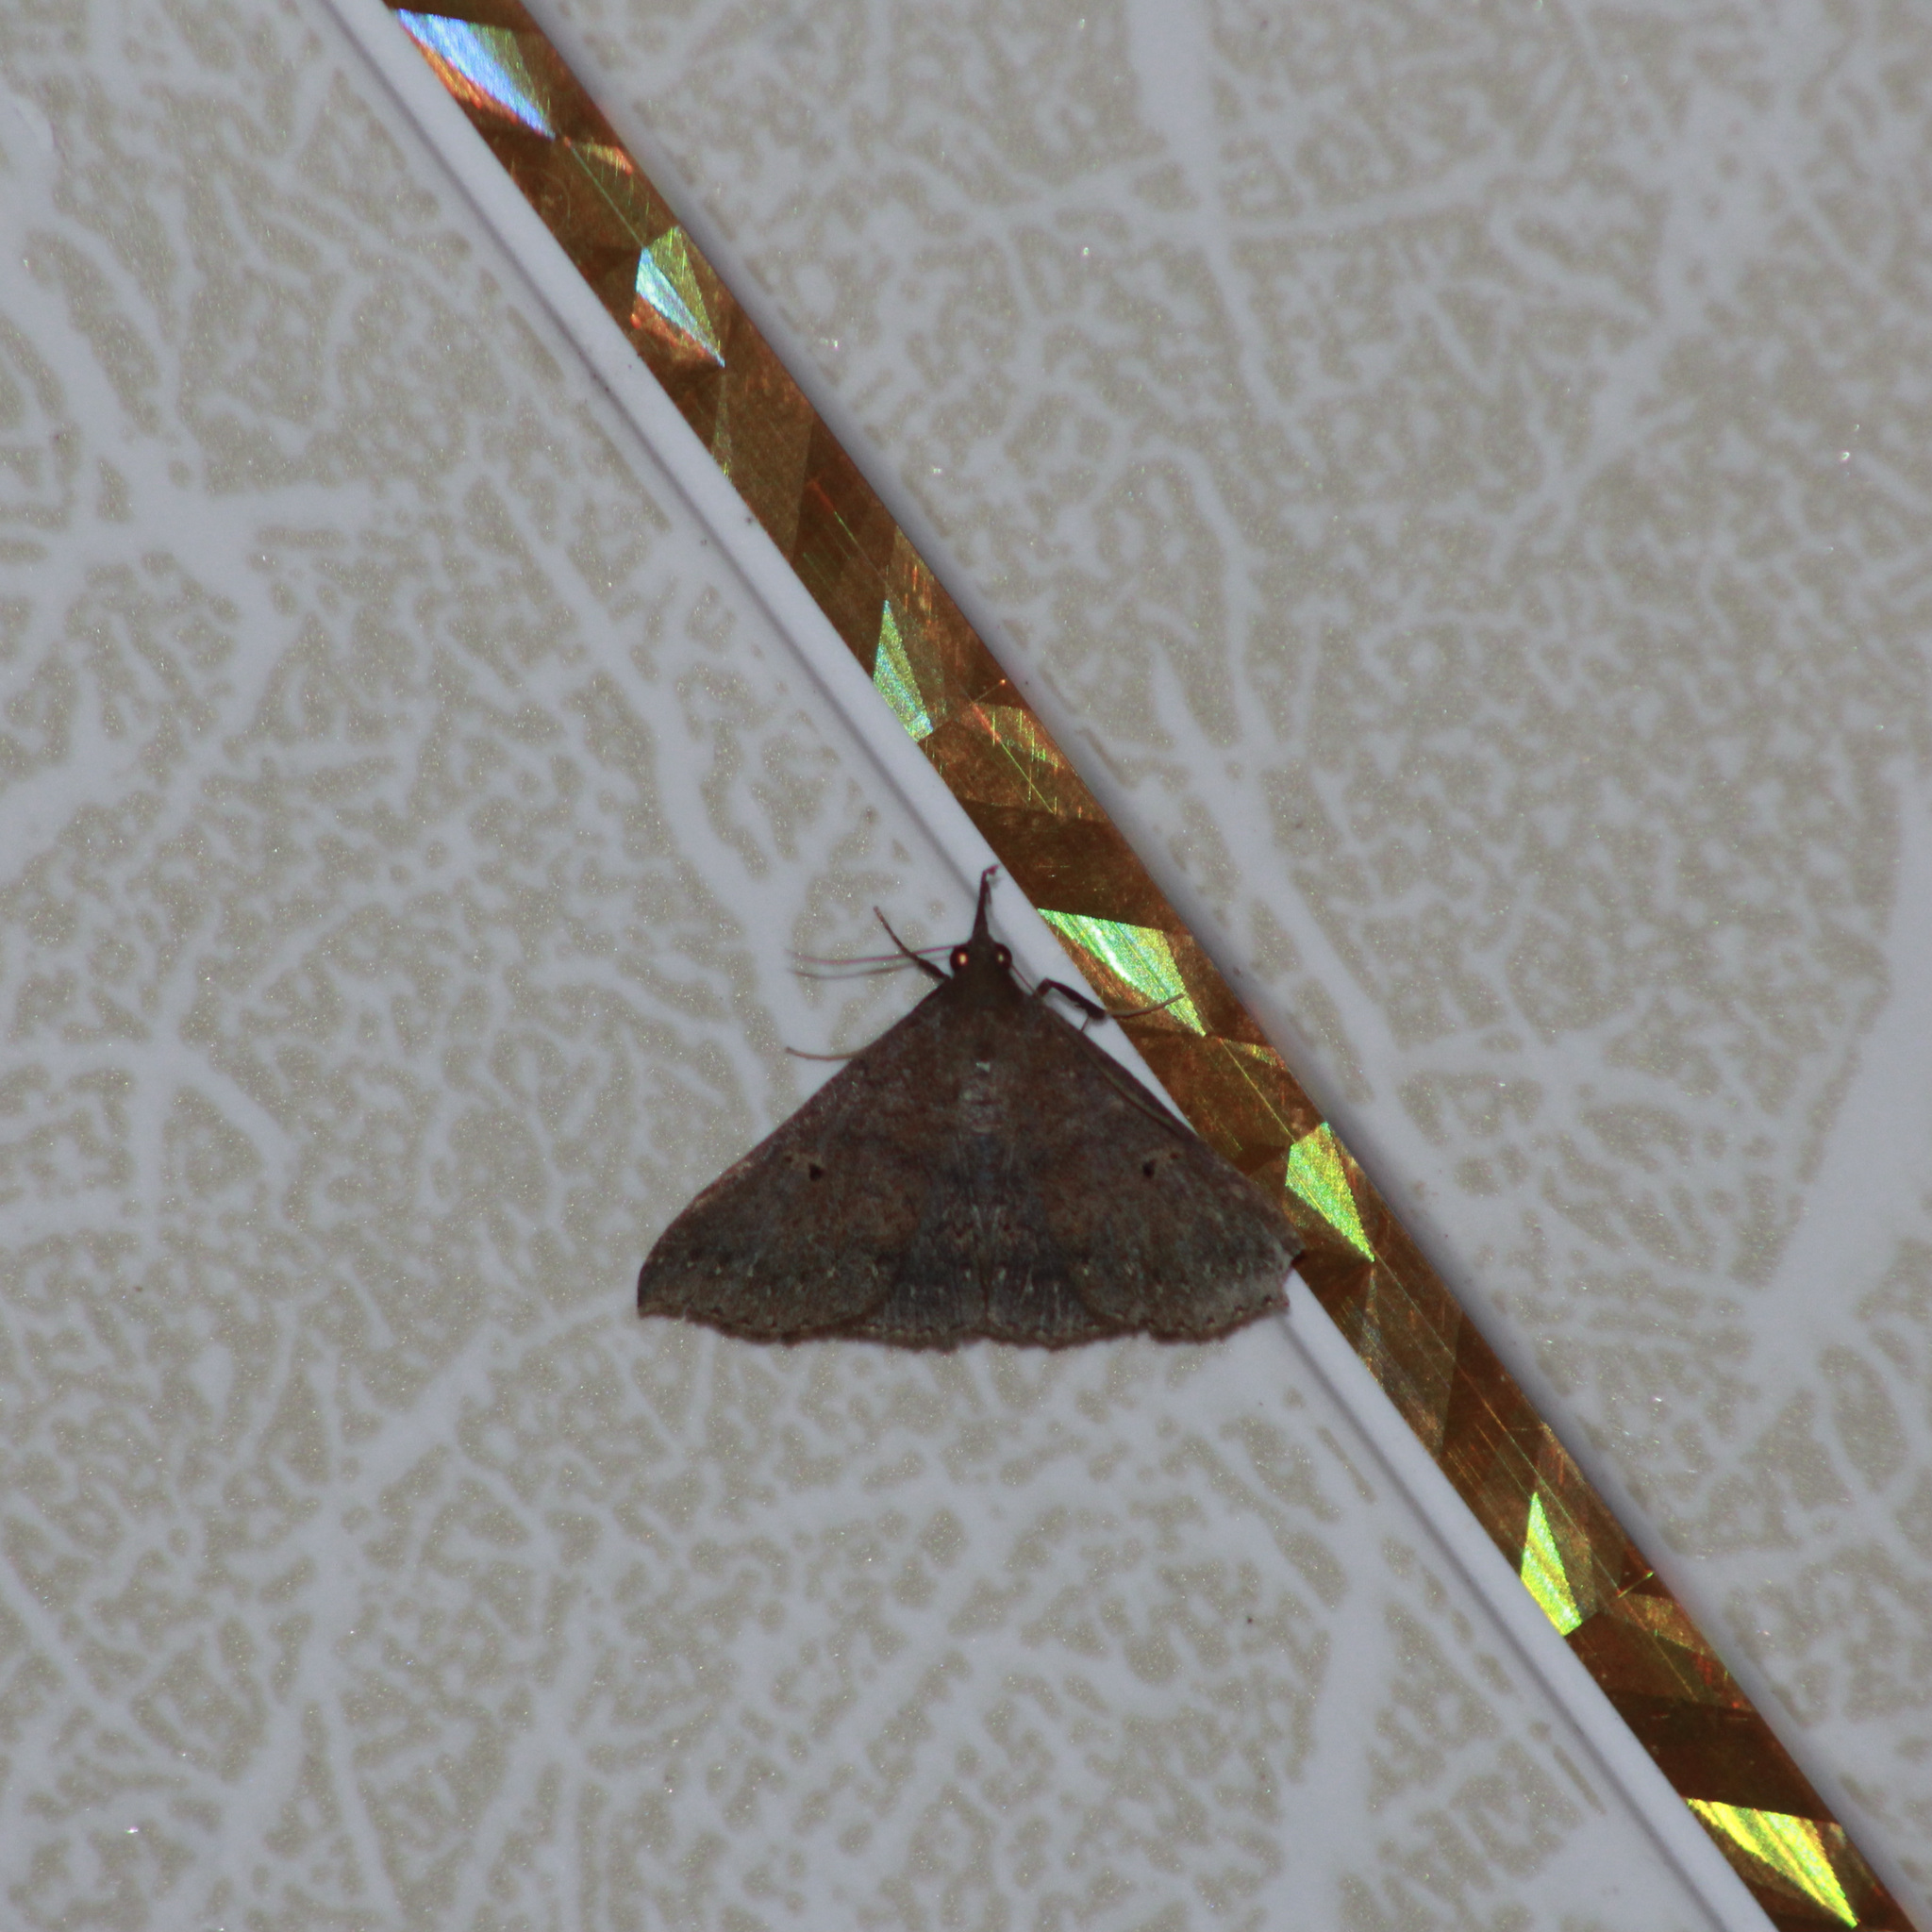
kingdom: Animalia
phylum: Arthropoda
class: Insecta
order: Lepidoptera
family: Erebidae
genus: Renia
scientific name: Renia bipunctata
